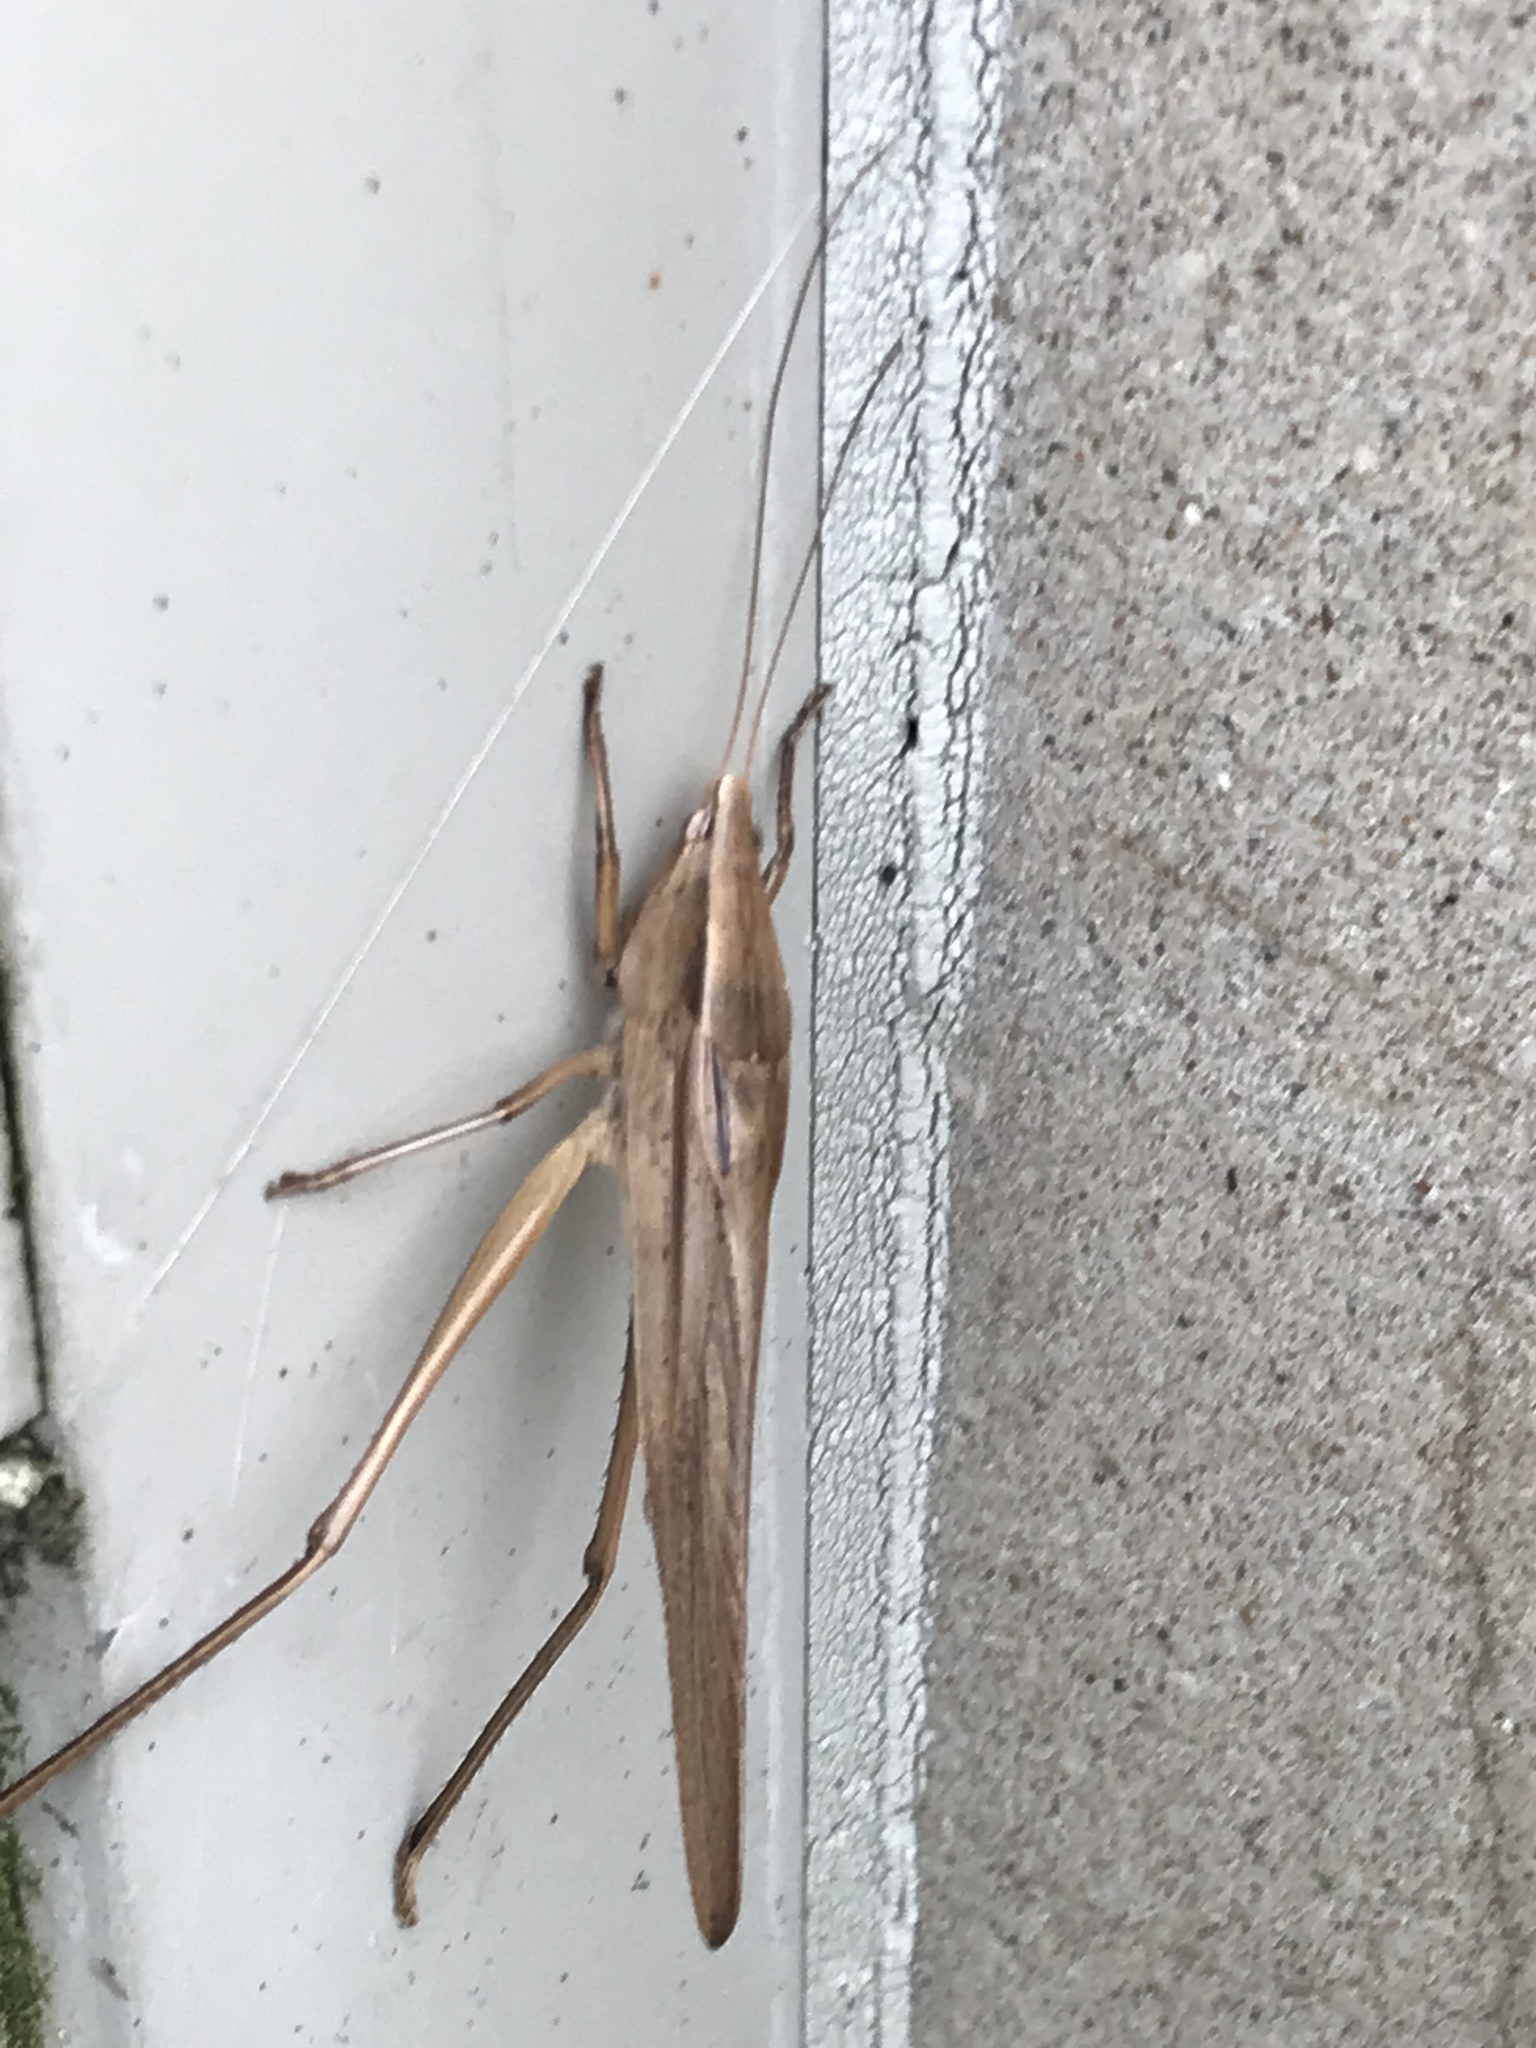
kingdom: Animalia
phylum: Arthropoda
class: Insecta
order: Orthoptera
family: Tettigoniidae
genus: Neoconocephalus
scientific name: Neoconocephalus triops
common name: Broad-tipped conehead
